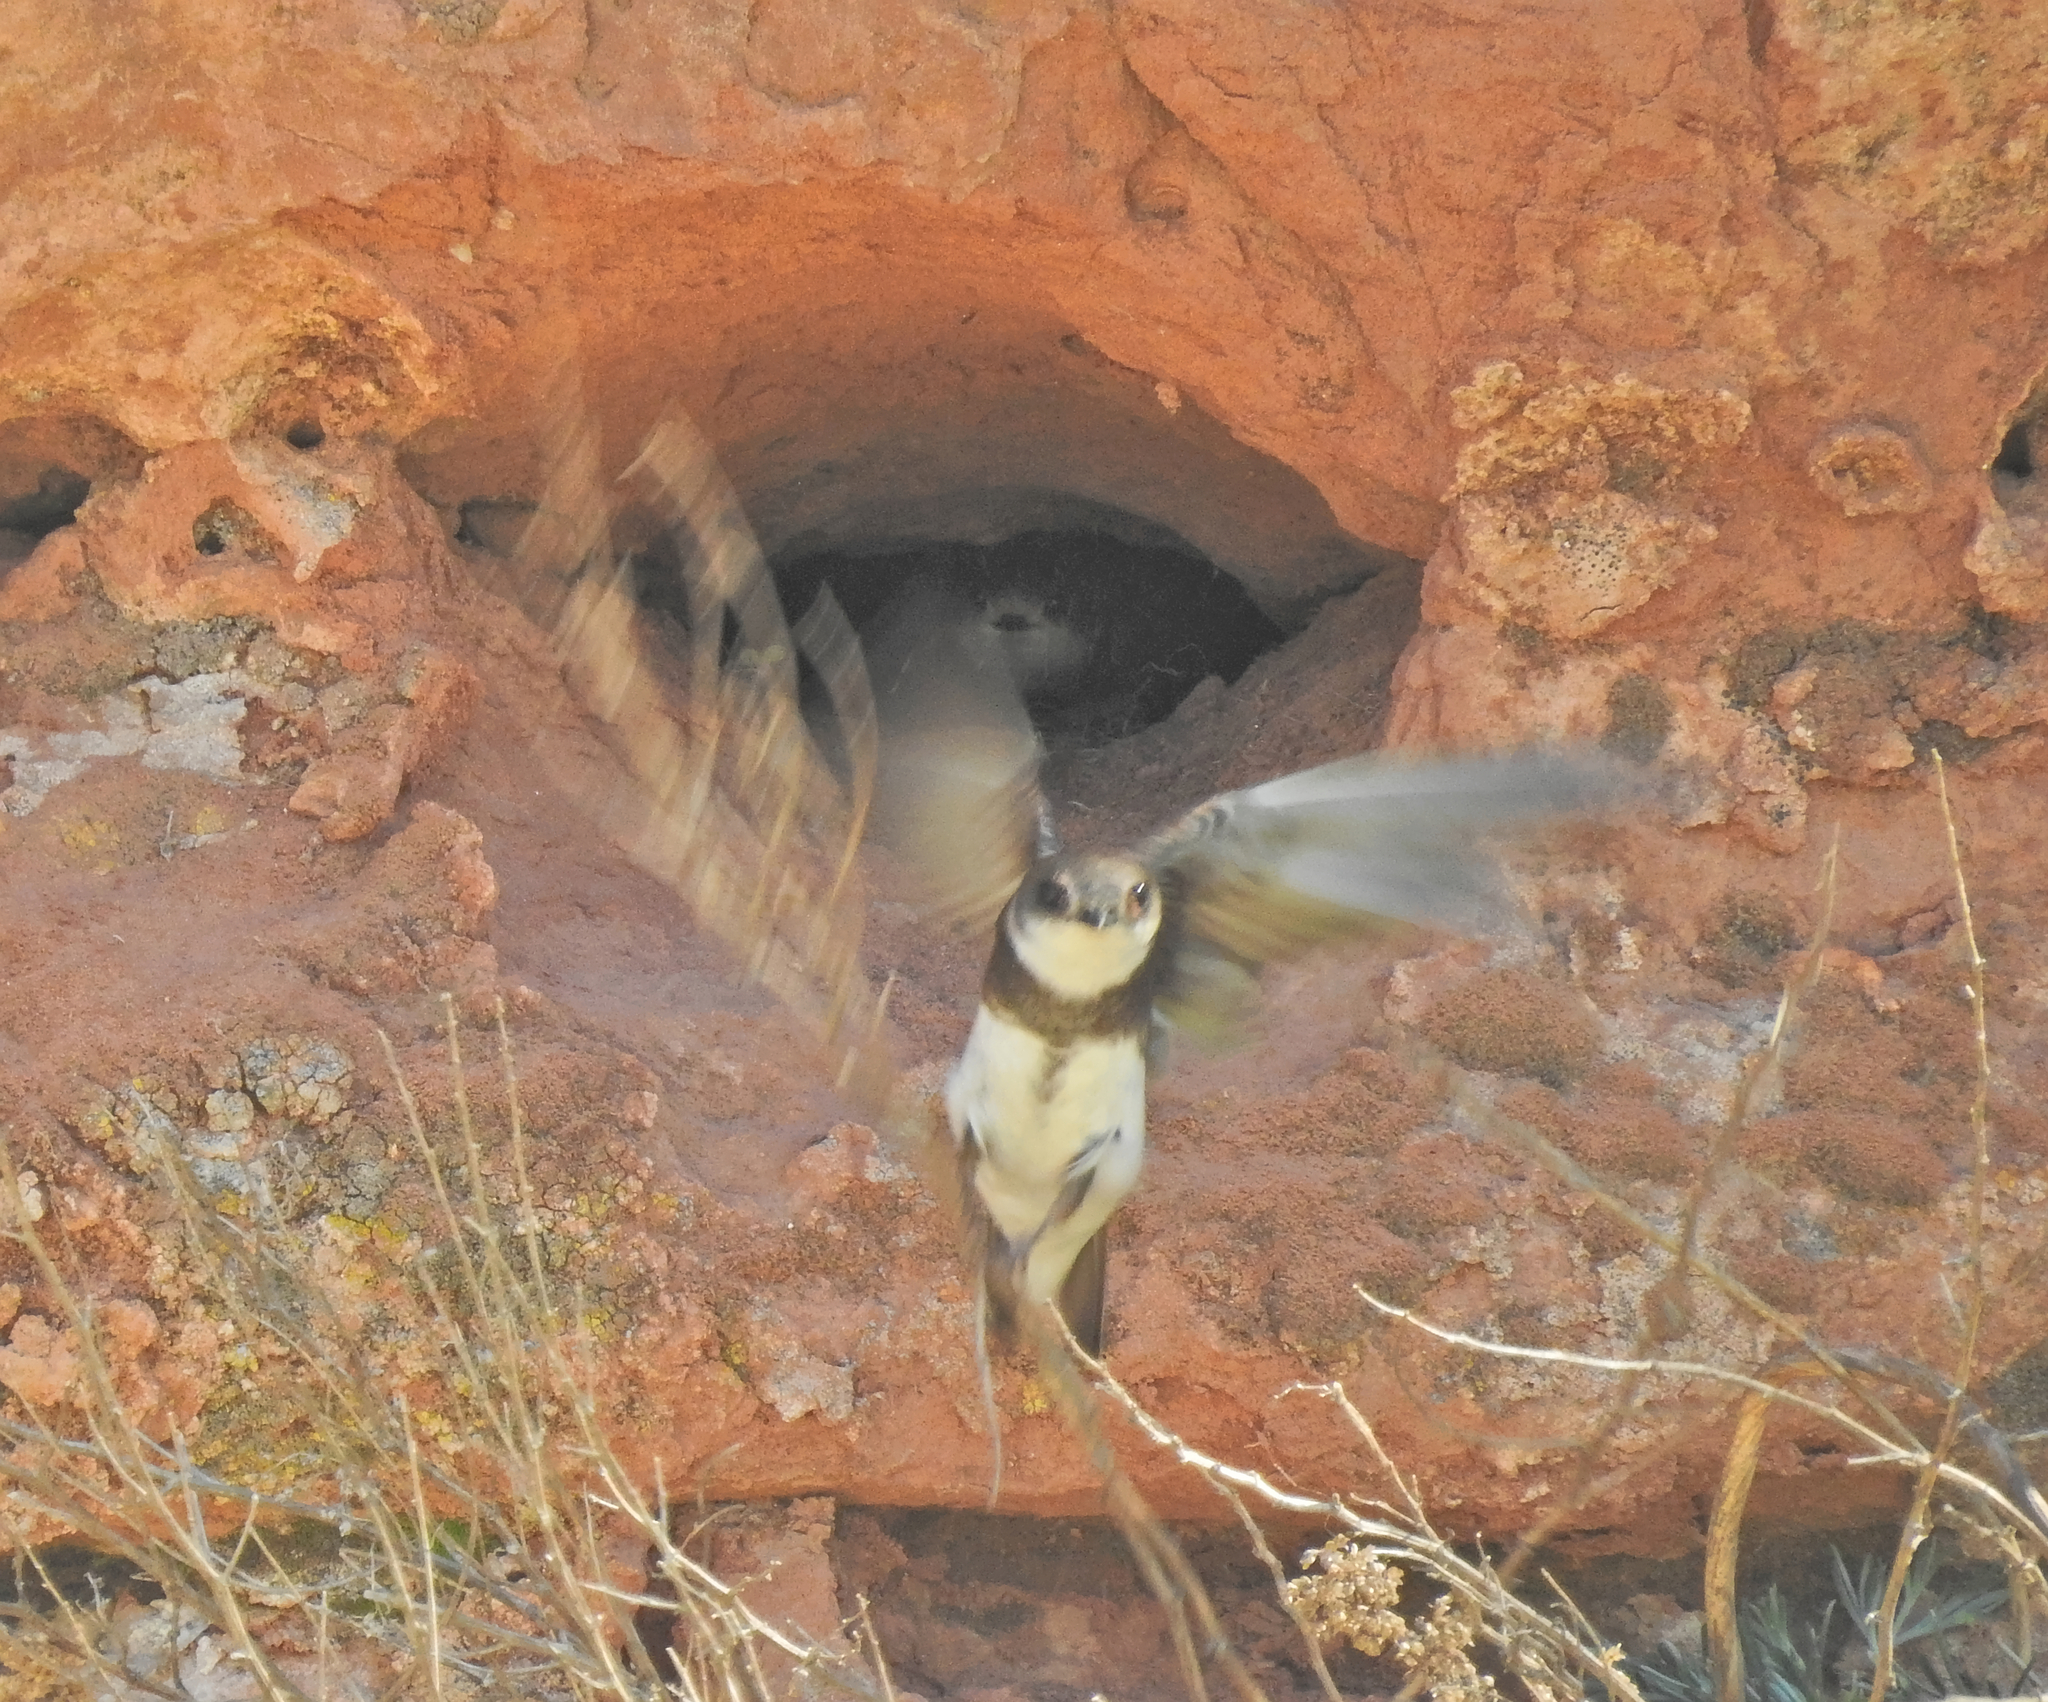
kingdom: Animalia
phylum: Chordata
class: Aves
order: Passeriformes
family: Hirundinidae
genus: Riparia
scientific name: Riparia riparia
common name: Sand martin
